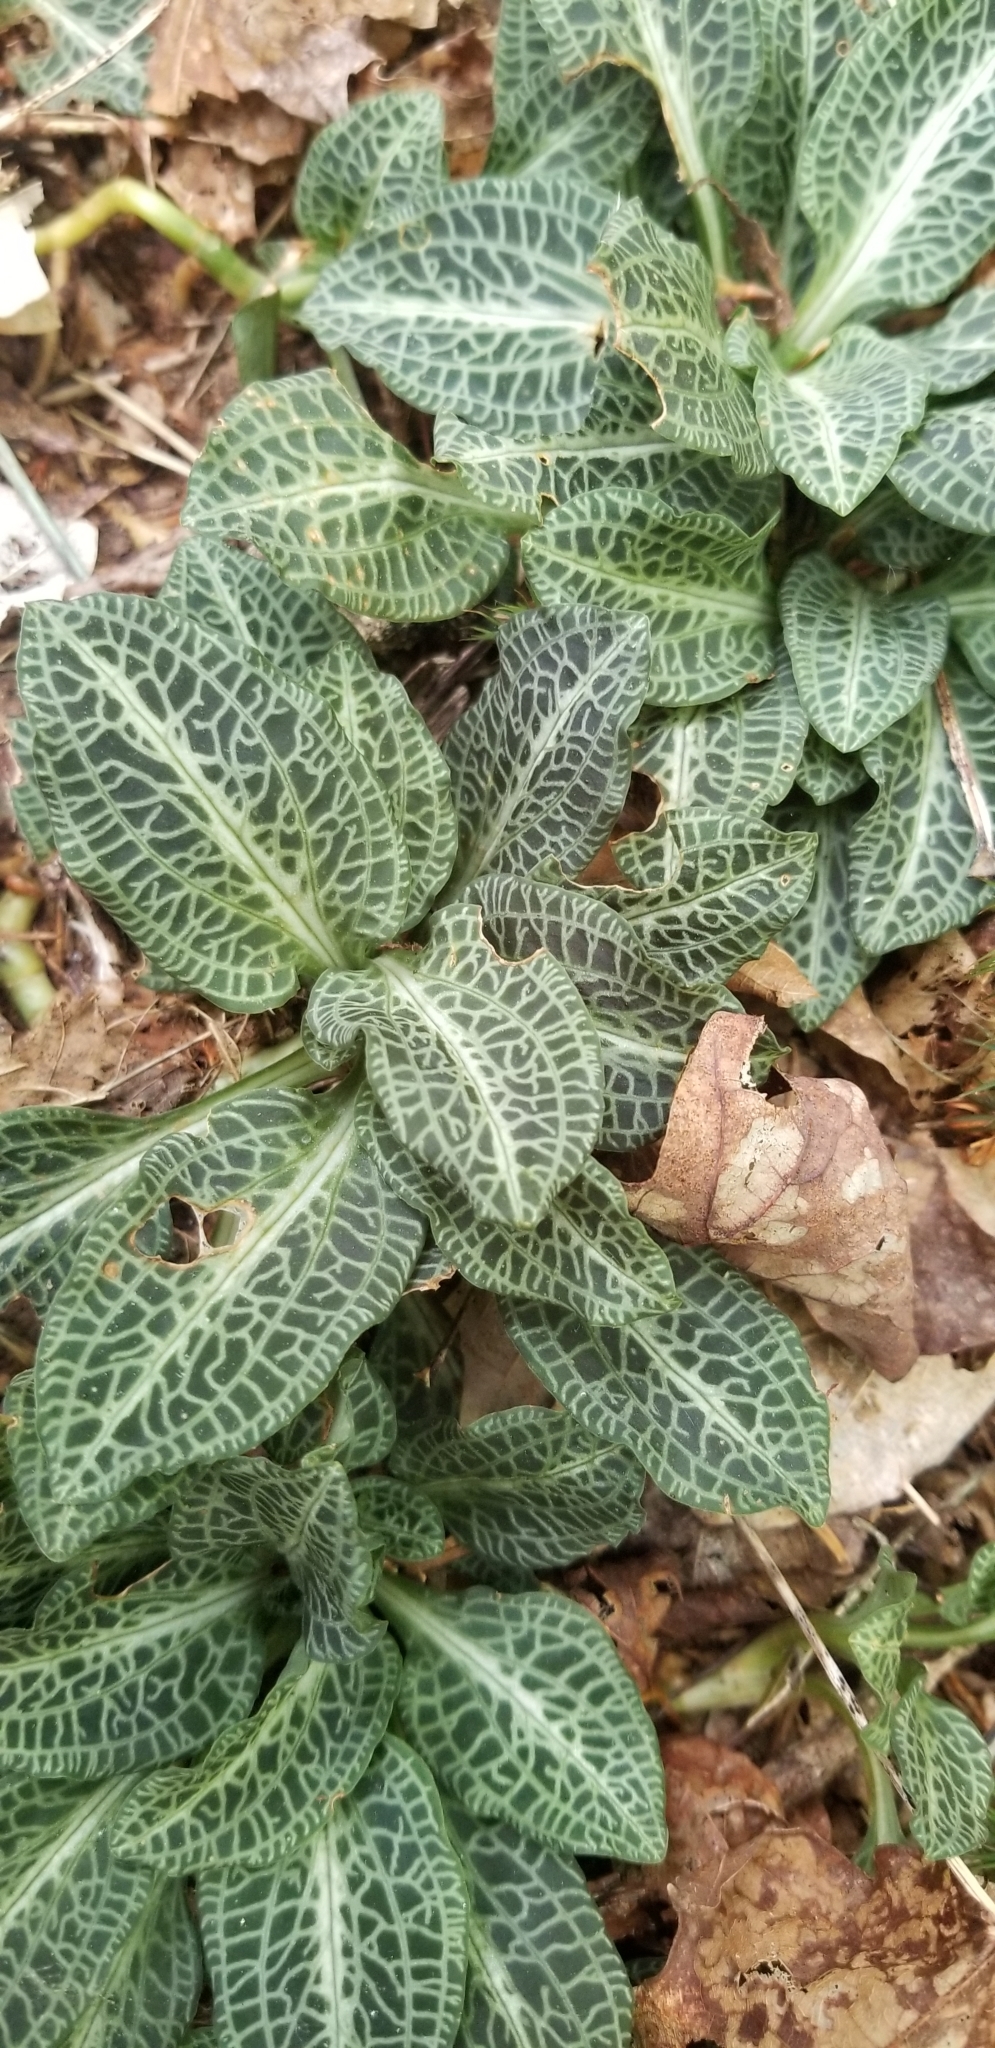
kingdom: Plantae
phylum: Tracheophyta
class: Liliopsida
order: Asparagales
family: Orchidaceae
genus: Goodyera
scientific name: Goodyera pubescens
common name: Downy rattlesnake-plantain
